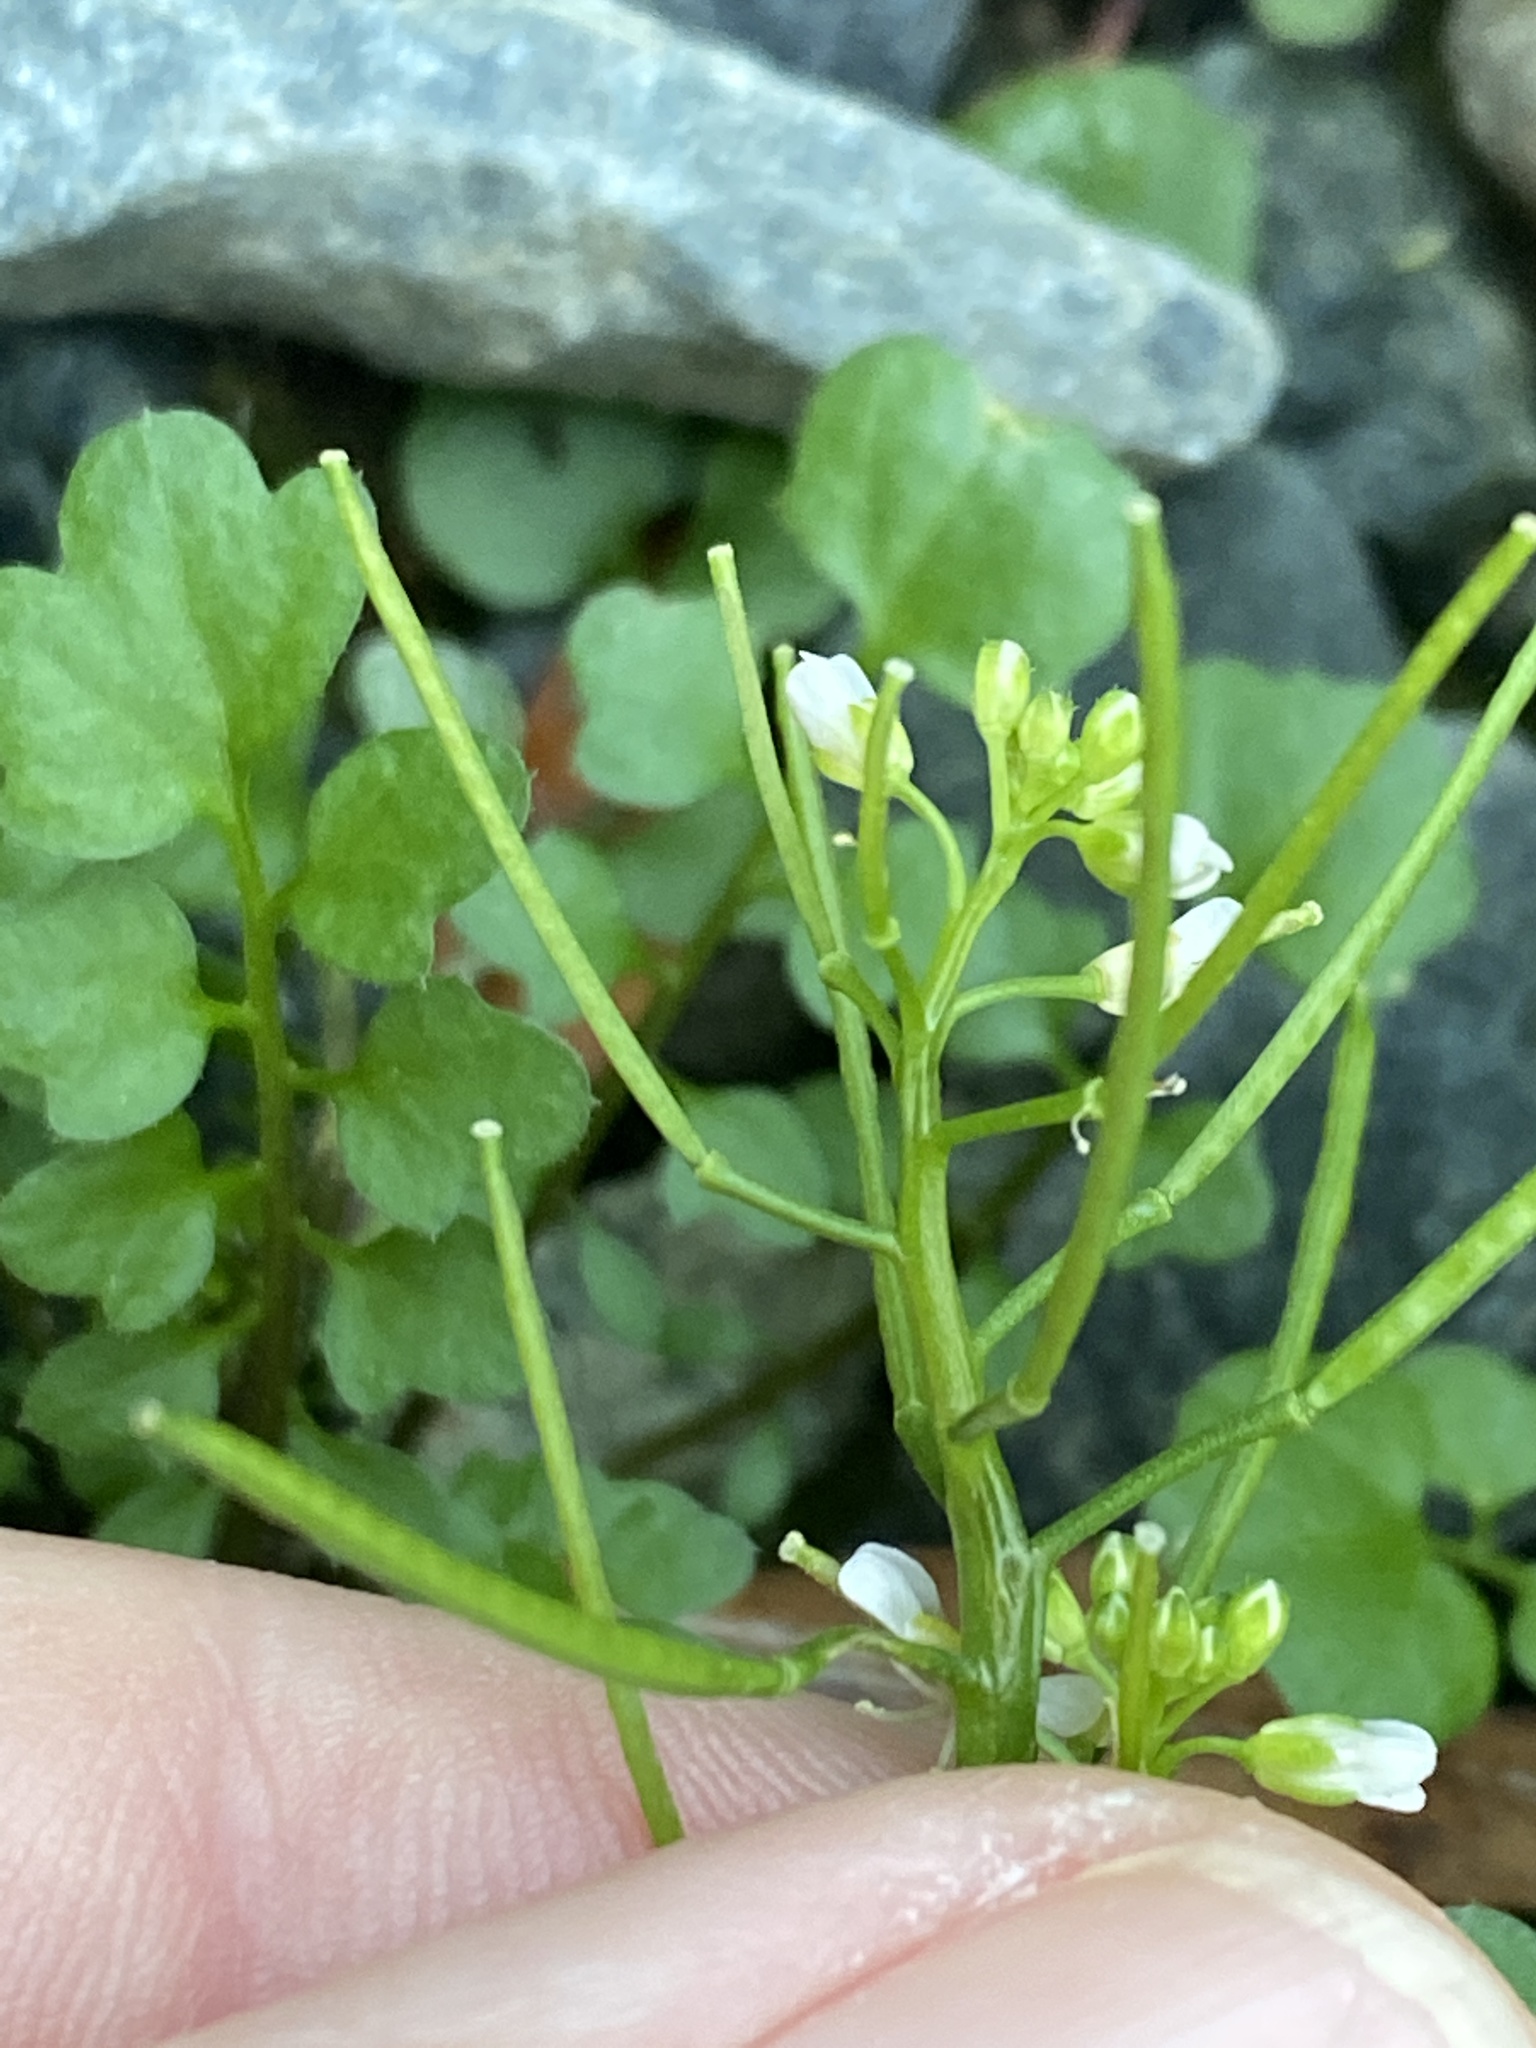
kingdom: Plantae
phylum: Tracheophyta
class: Magnoliopsida
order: Brassicales
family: Brassicaceae
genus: Cardamine
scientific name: Cardamine hirsuta
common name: Hairy bittercress
